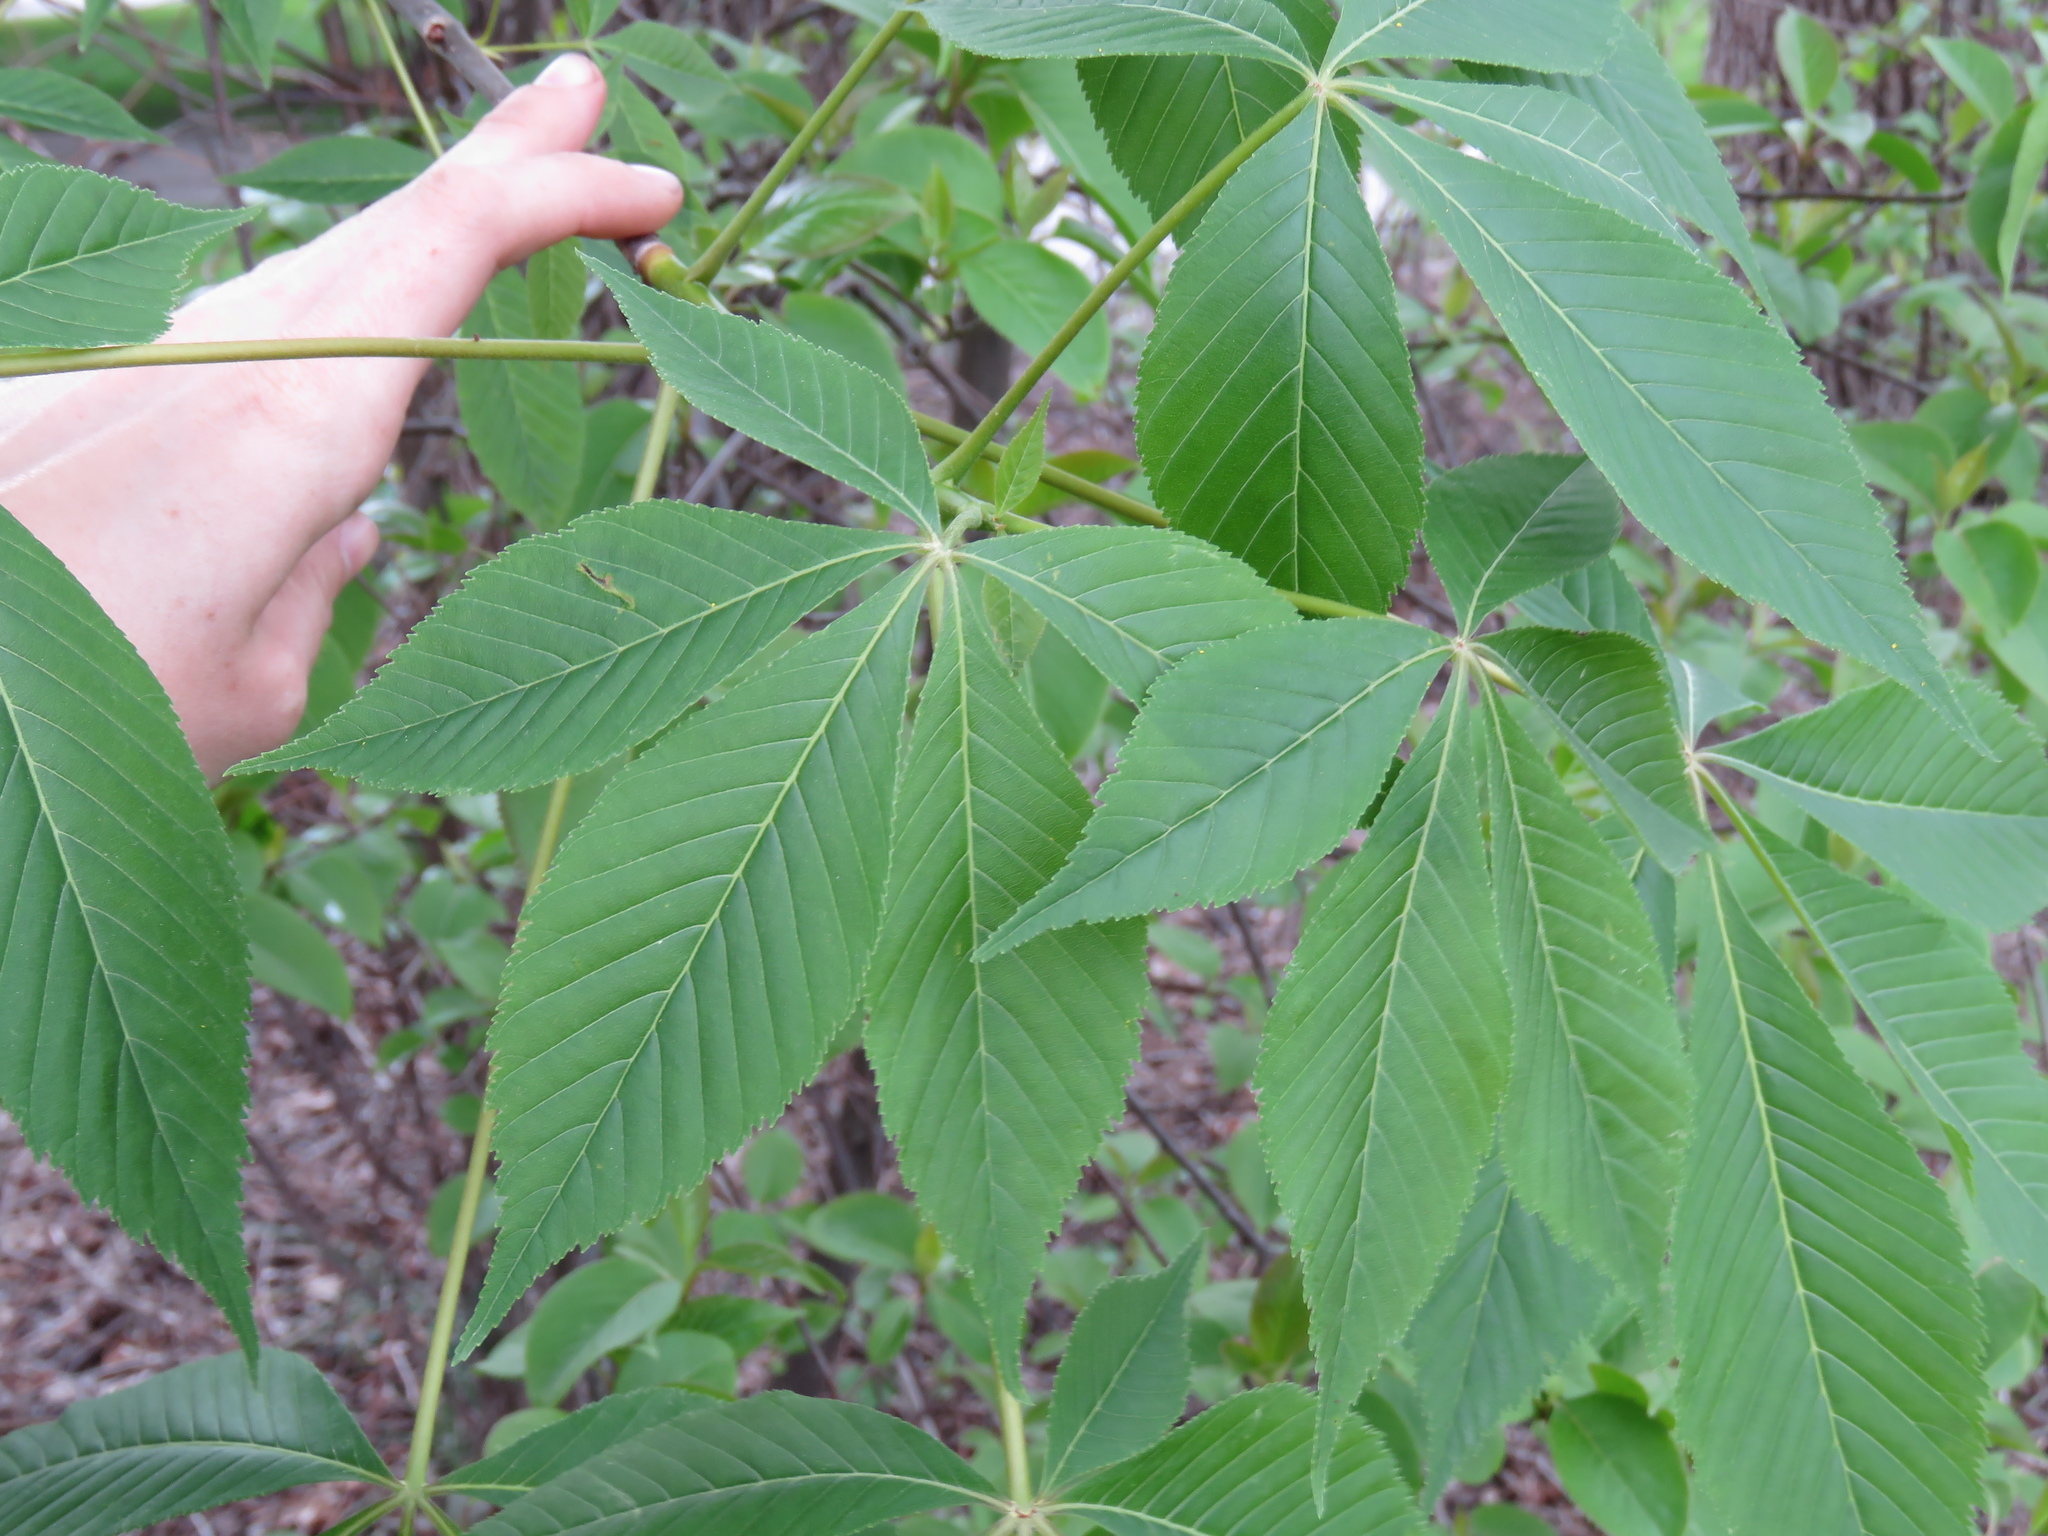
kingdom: Plantae
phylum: Tracheophyta
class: Magnoliopsida
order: Sapindales
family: Sapindaceae
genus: Aesculus
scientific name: Aesculus glabra
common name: Ohio buckeye
